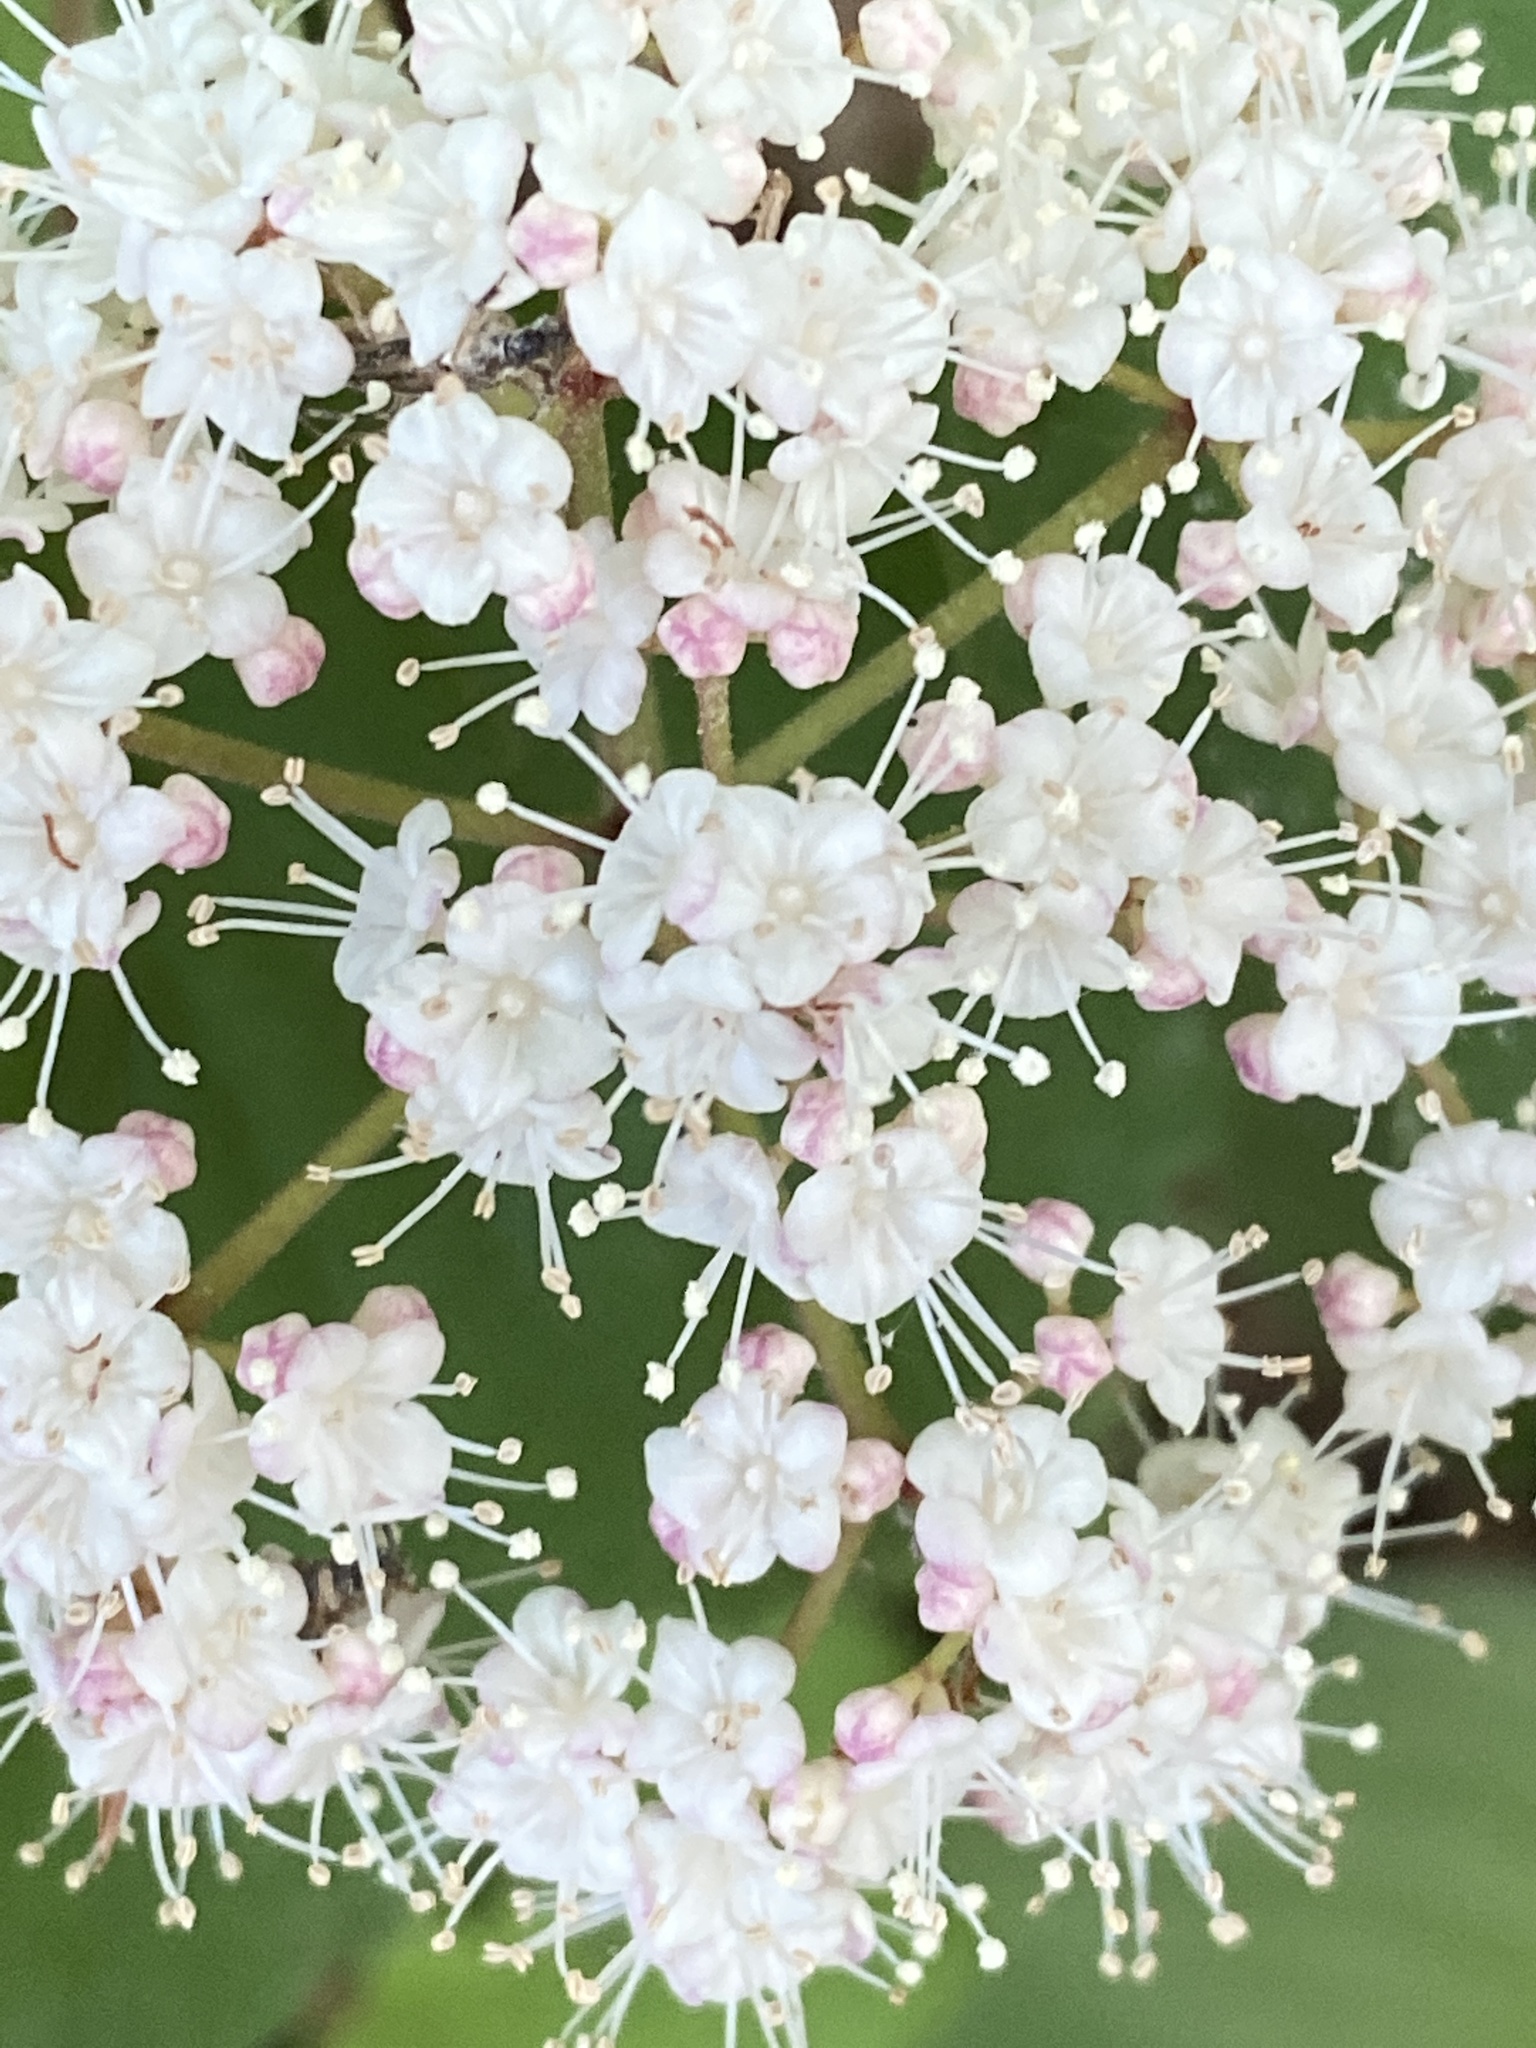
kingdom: Plantae
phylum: Tracheophyta
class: Magnoliopsida
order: Dipsacales
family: Viburnaceae
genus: Viburnum
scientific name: Viburnum acerifolium
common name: Dockmackie
